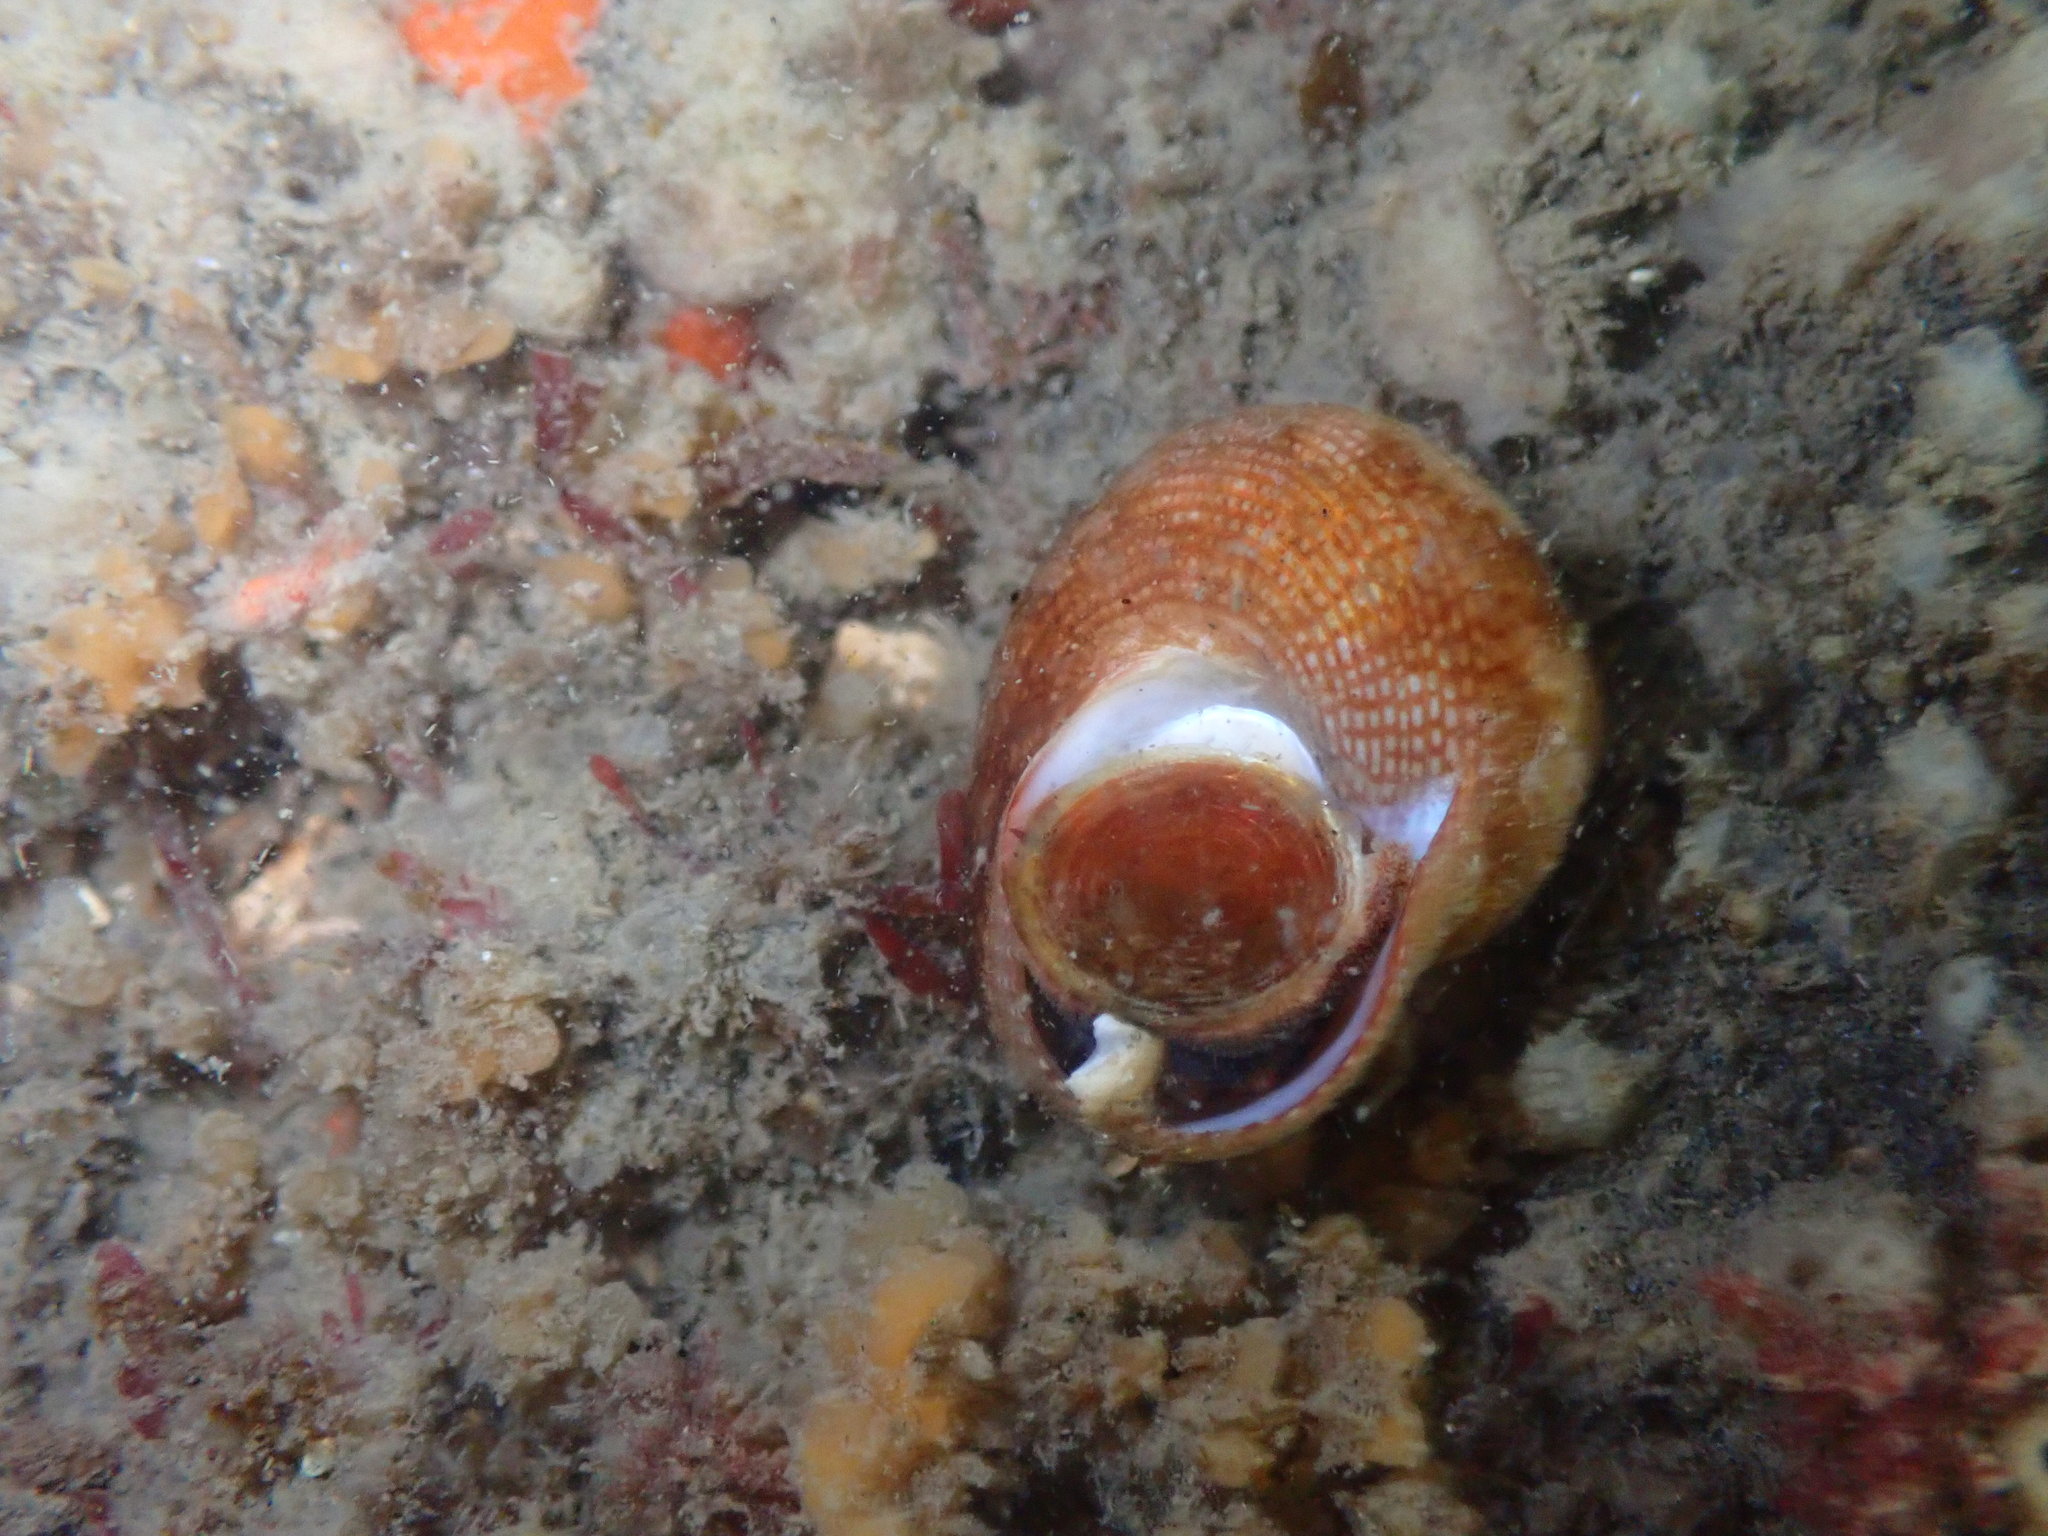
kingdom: Animalia
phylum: Mollusca
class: Gastropoda
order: Trochida
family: Calliostomatidae
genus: Maurea
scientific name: Maurea punctulata
